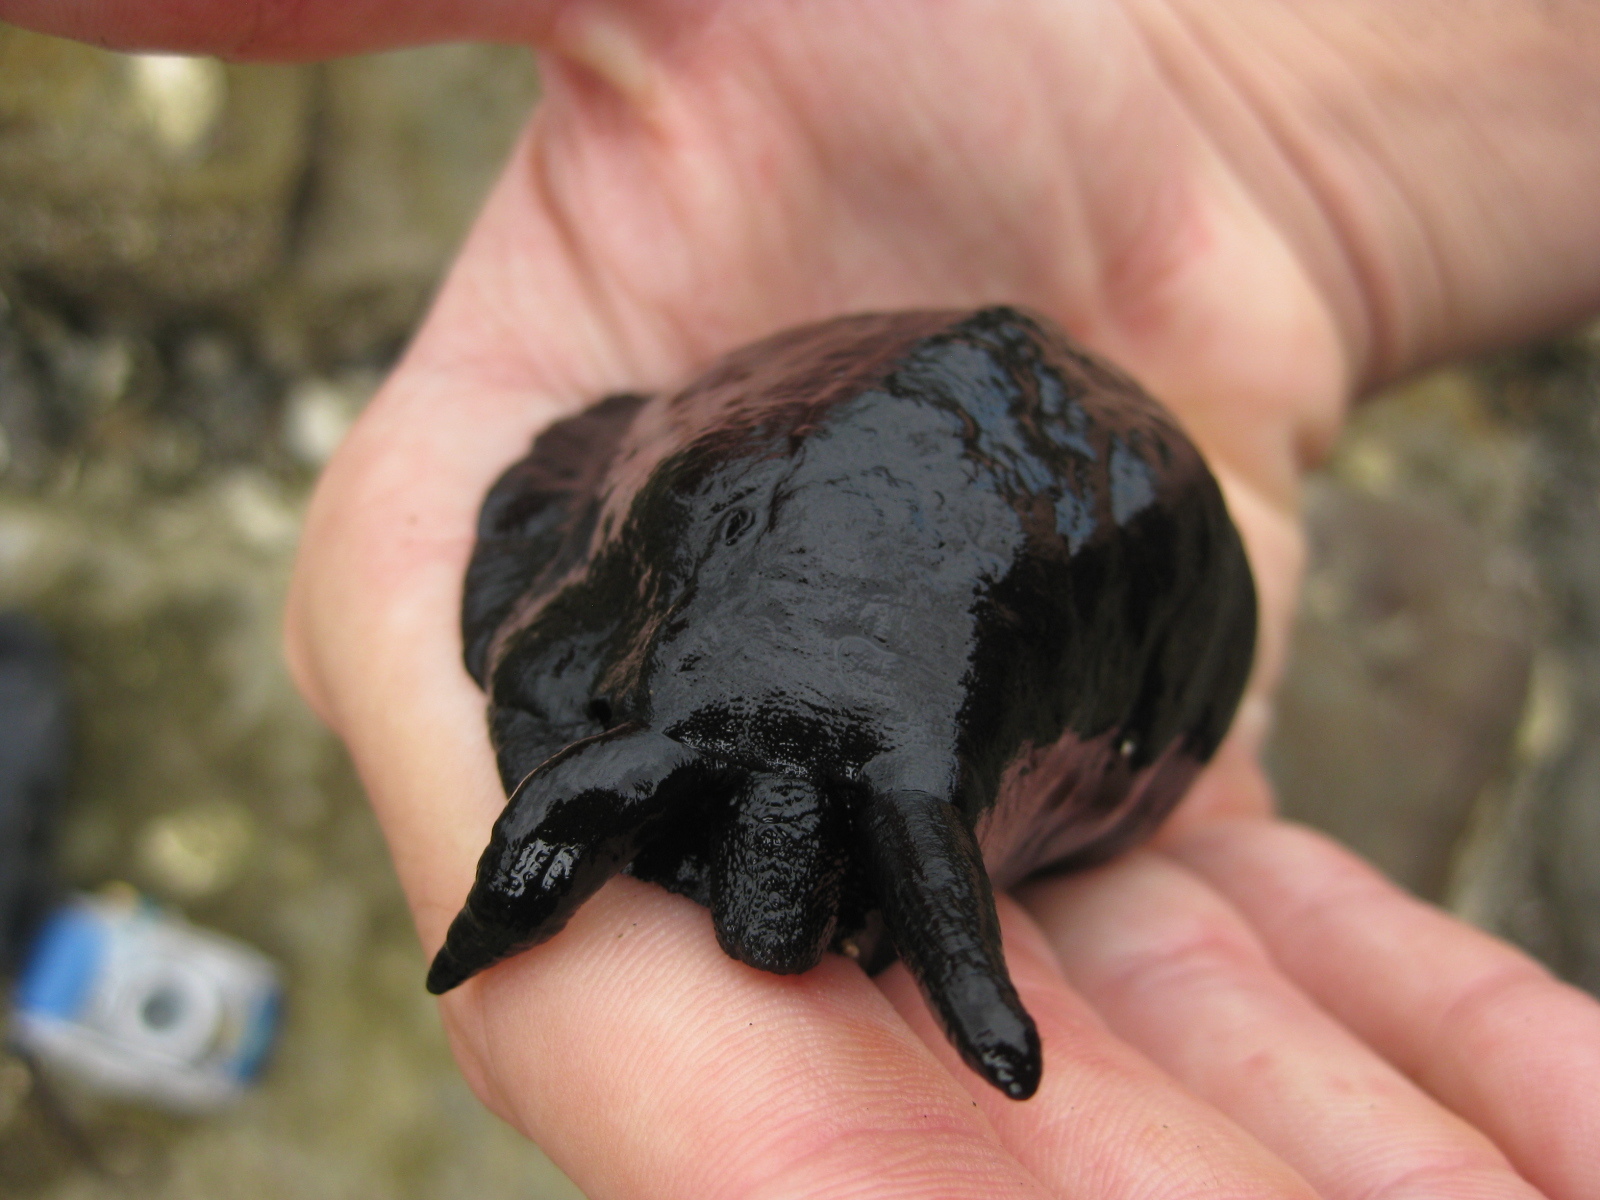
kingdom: Animalia
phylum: Mollusca
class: Gastropoda
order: Lepetellida
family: Fissurellidae
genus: Scutus
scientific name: Scutus breviculus
